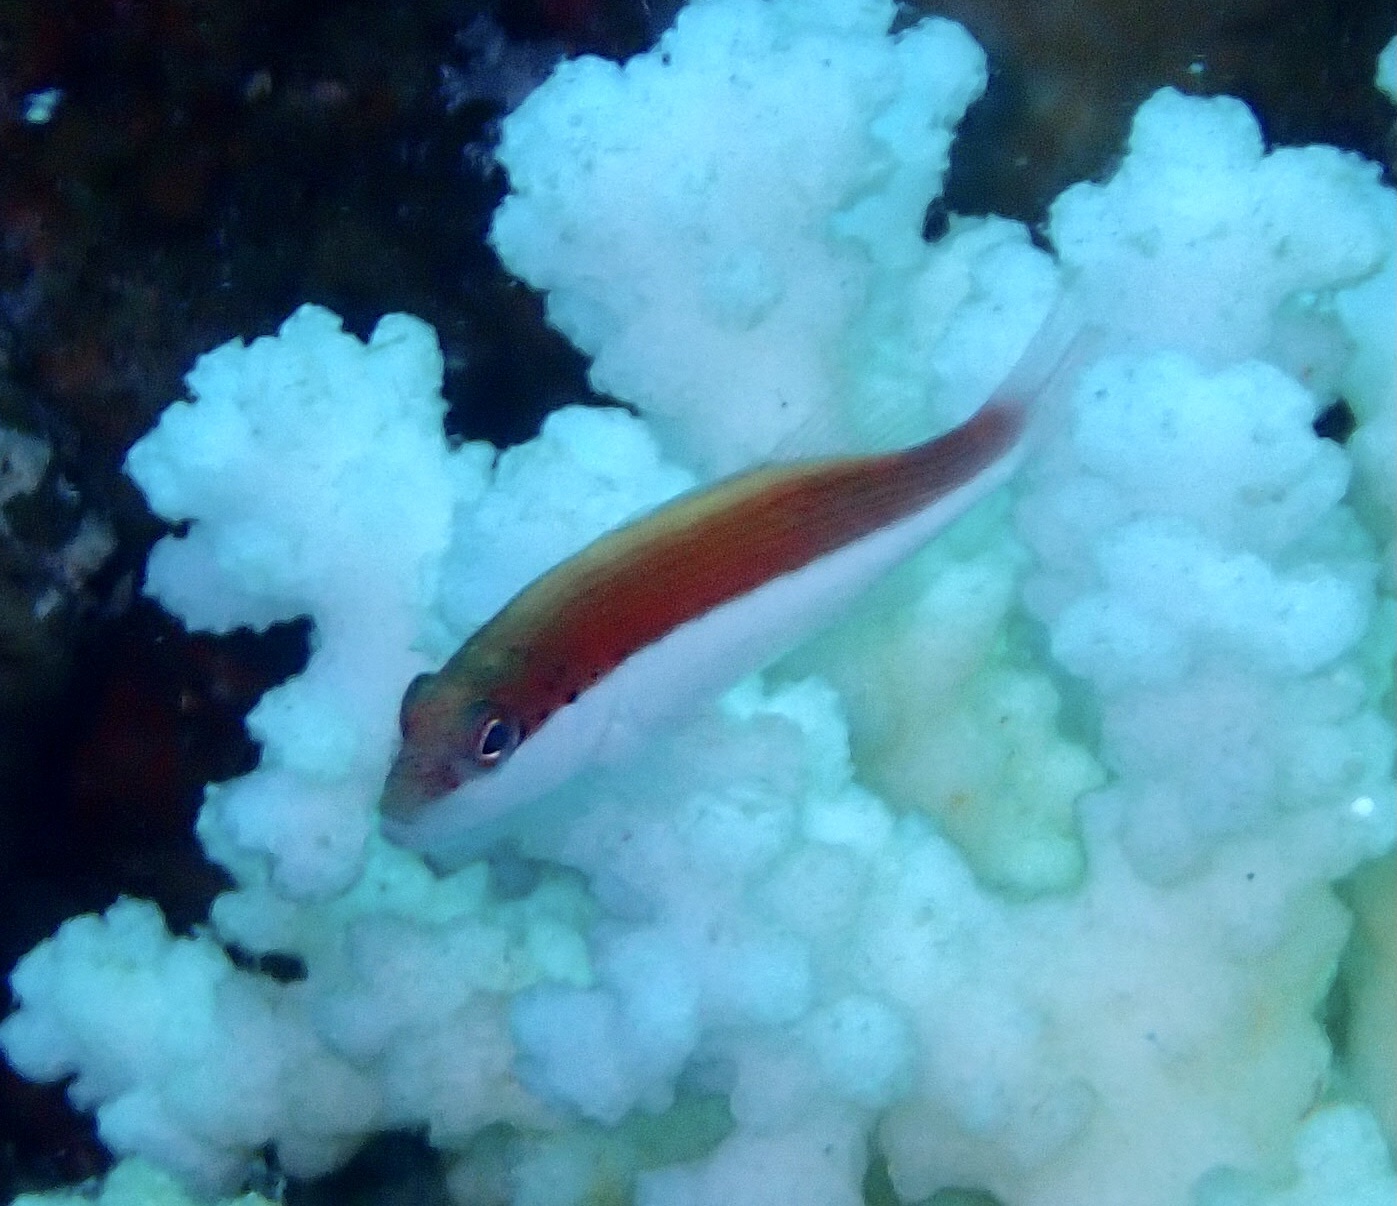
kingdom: Animalia
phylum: Chordata
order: Perciformes
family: Cirrhitidae
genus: Paracirrhites
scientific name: Paracirrhites forsteri
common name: Freckled hawkfish
